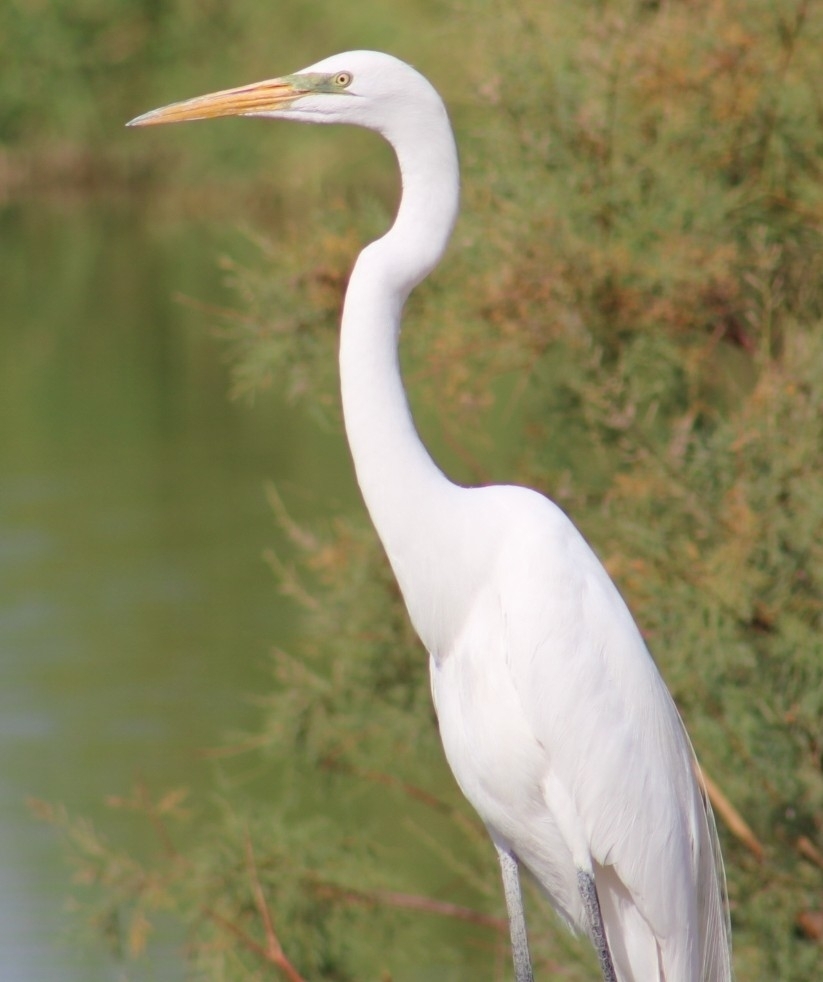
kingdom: Animalia
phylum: Chordata
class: Aves
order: Pelecaniformes
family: Ardeidae
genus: Ardea
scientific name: Ardea alba
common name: Great egret
